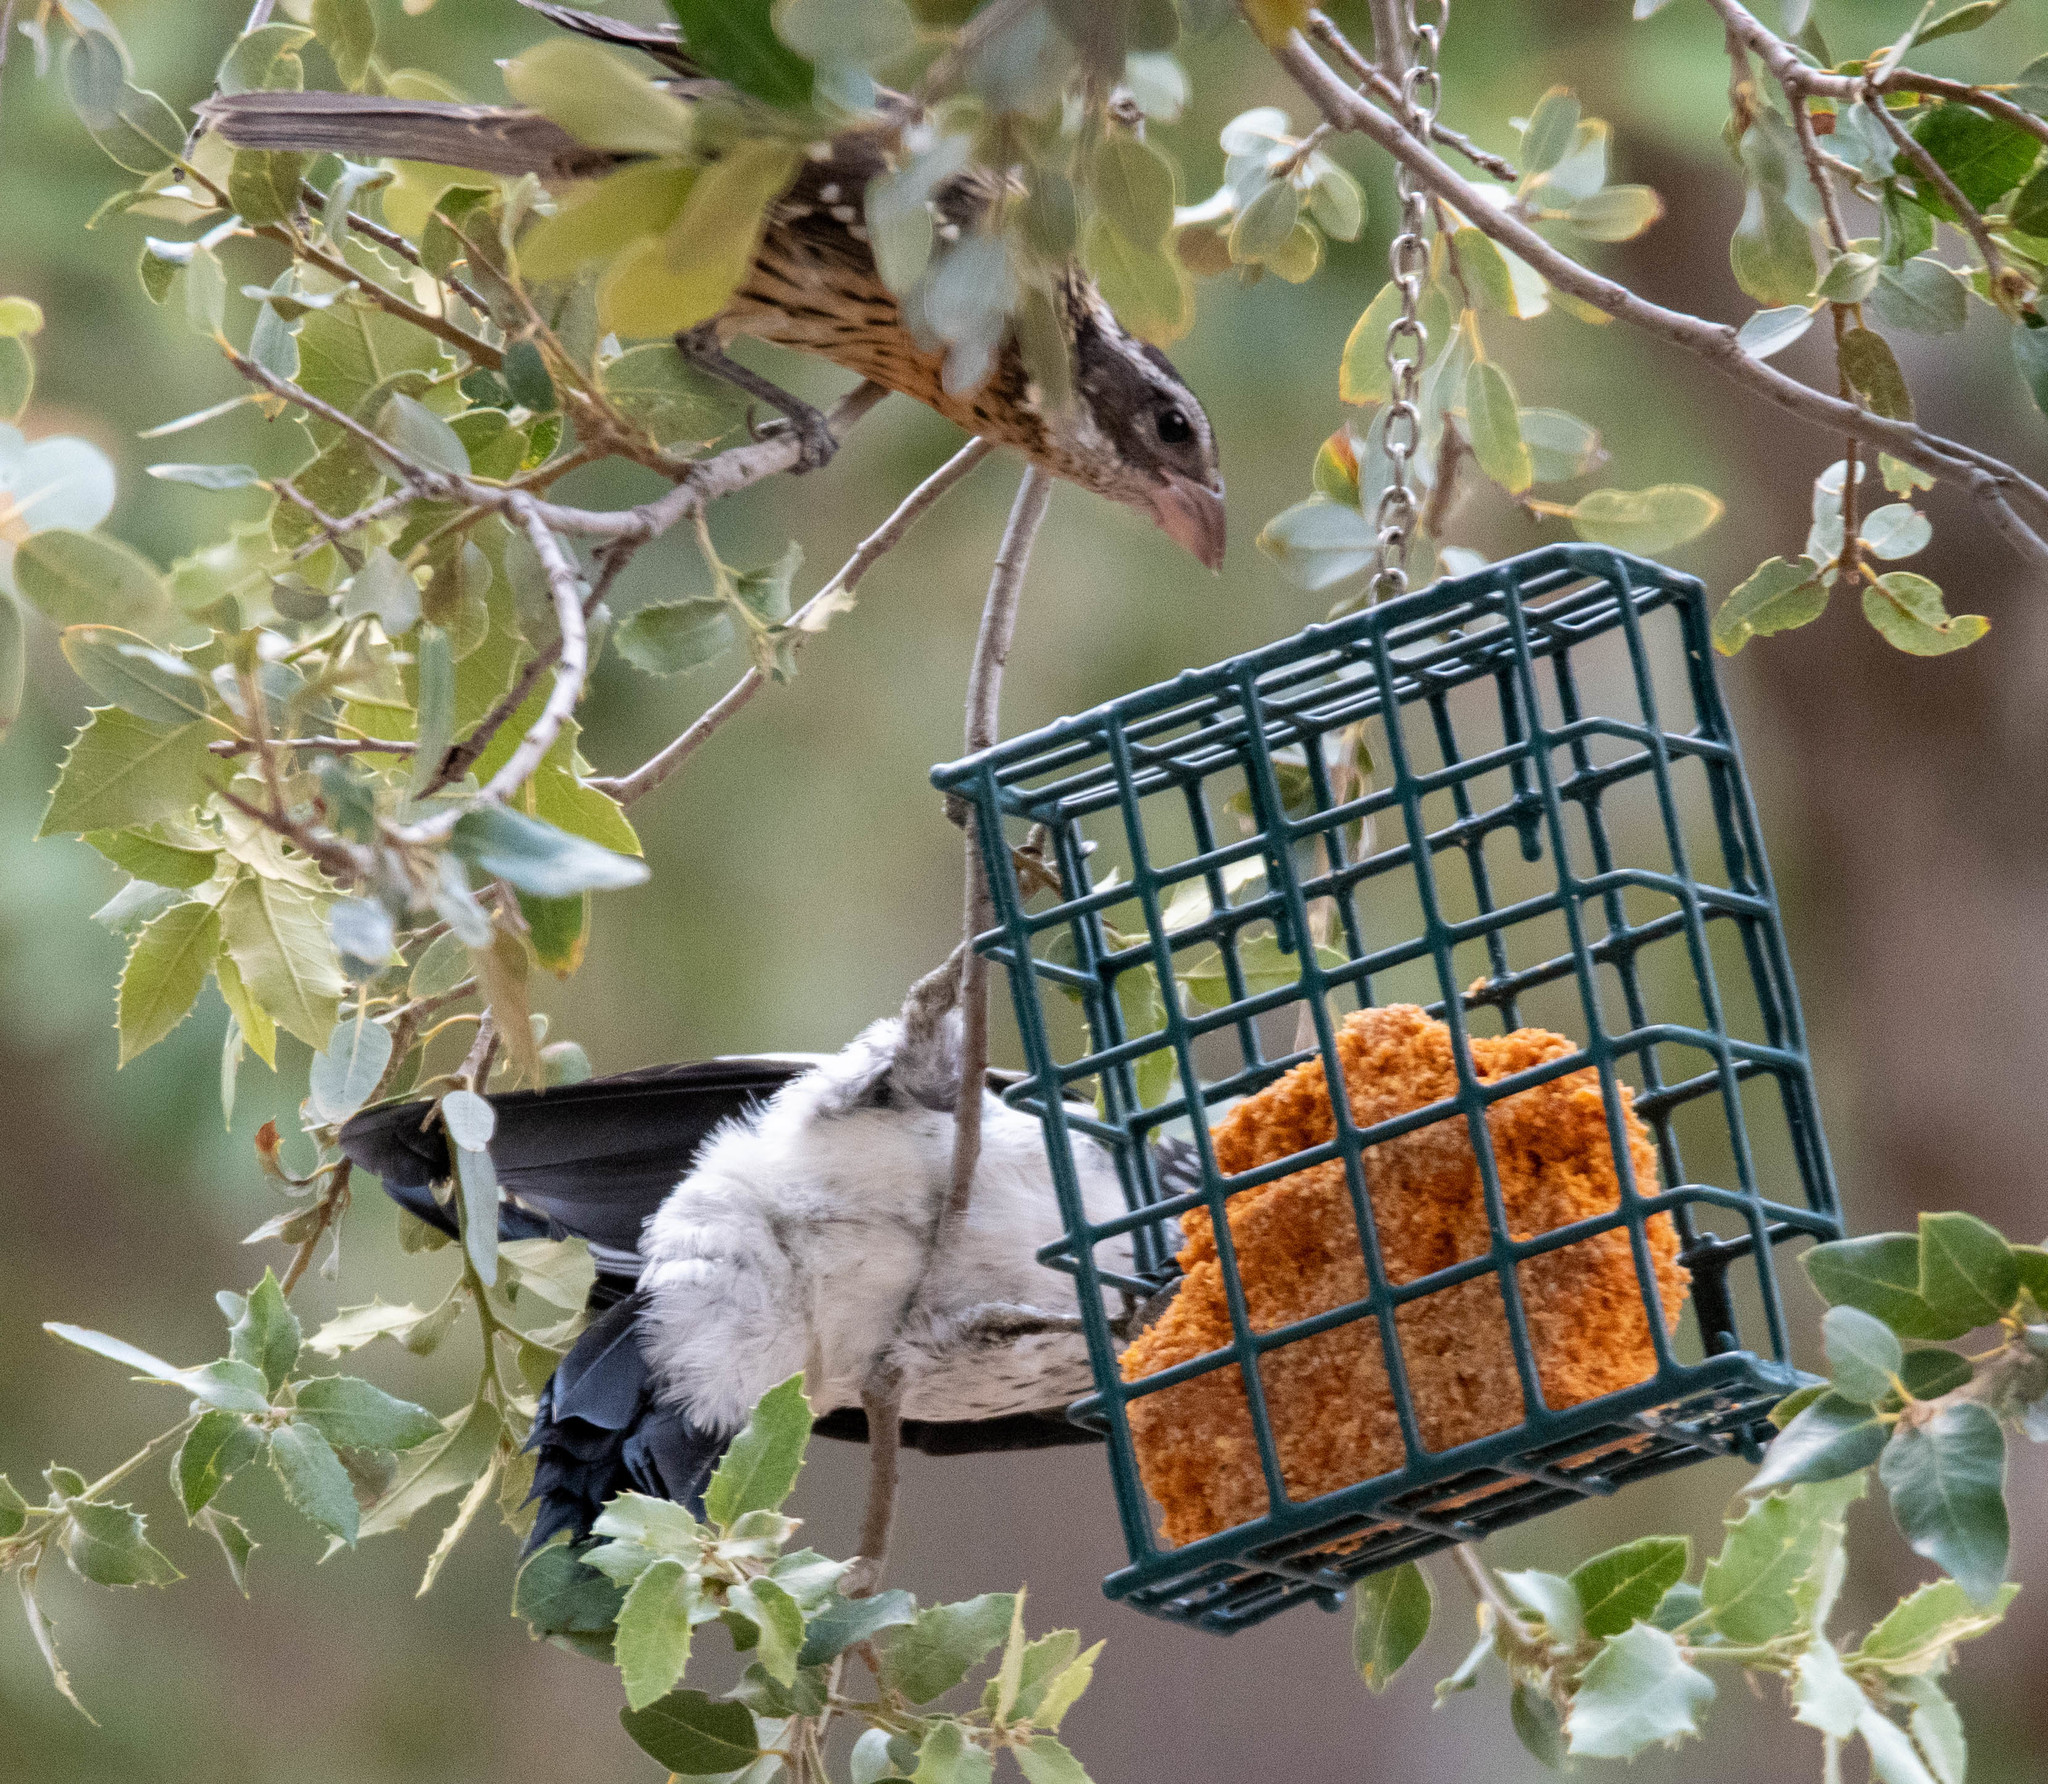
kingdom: Animalia
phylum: Chordata
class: Aves
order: Piciformes
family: Picidae
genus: Melanerpes
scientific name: Melanerpes formicivorus
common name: Acorn woodpecker
